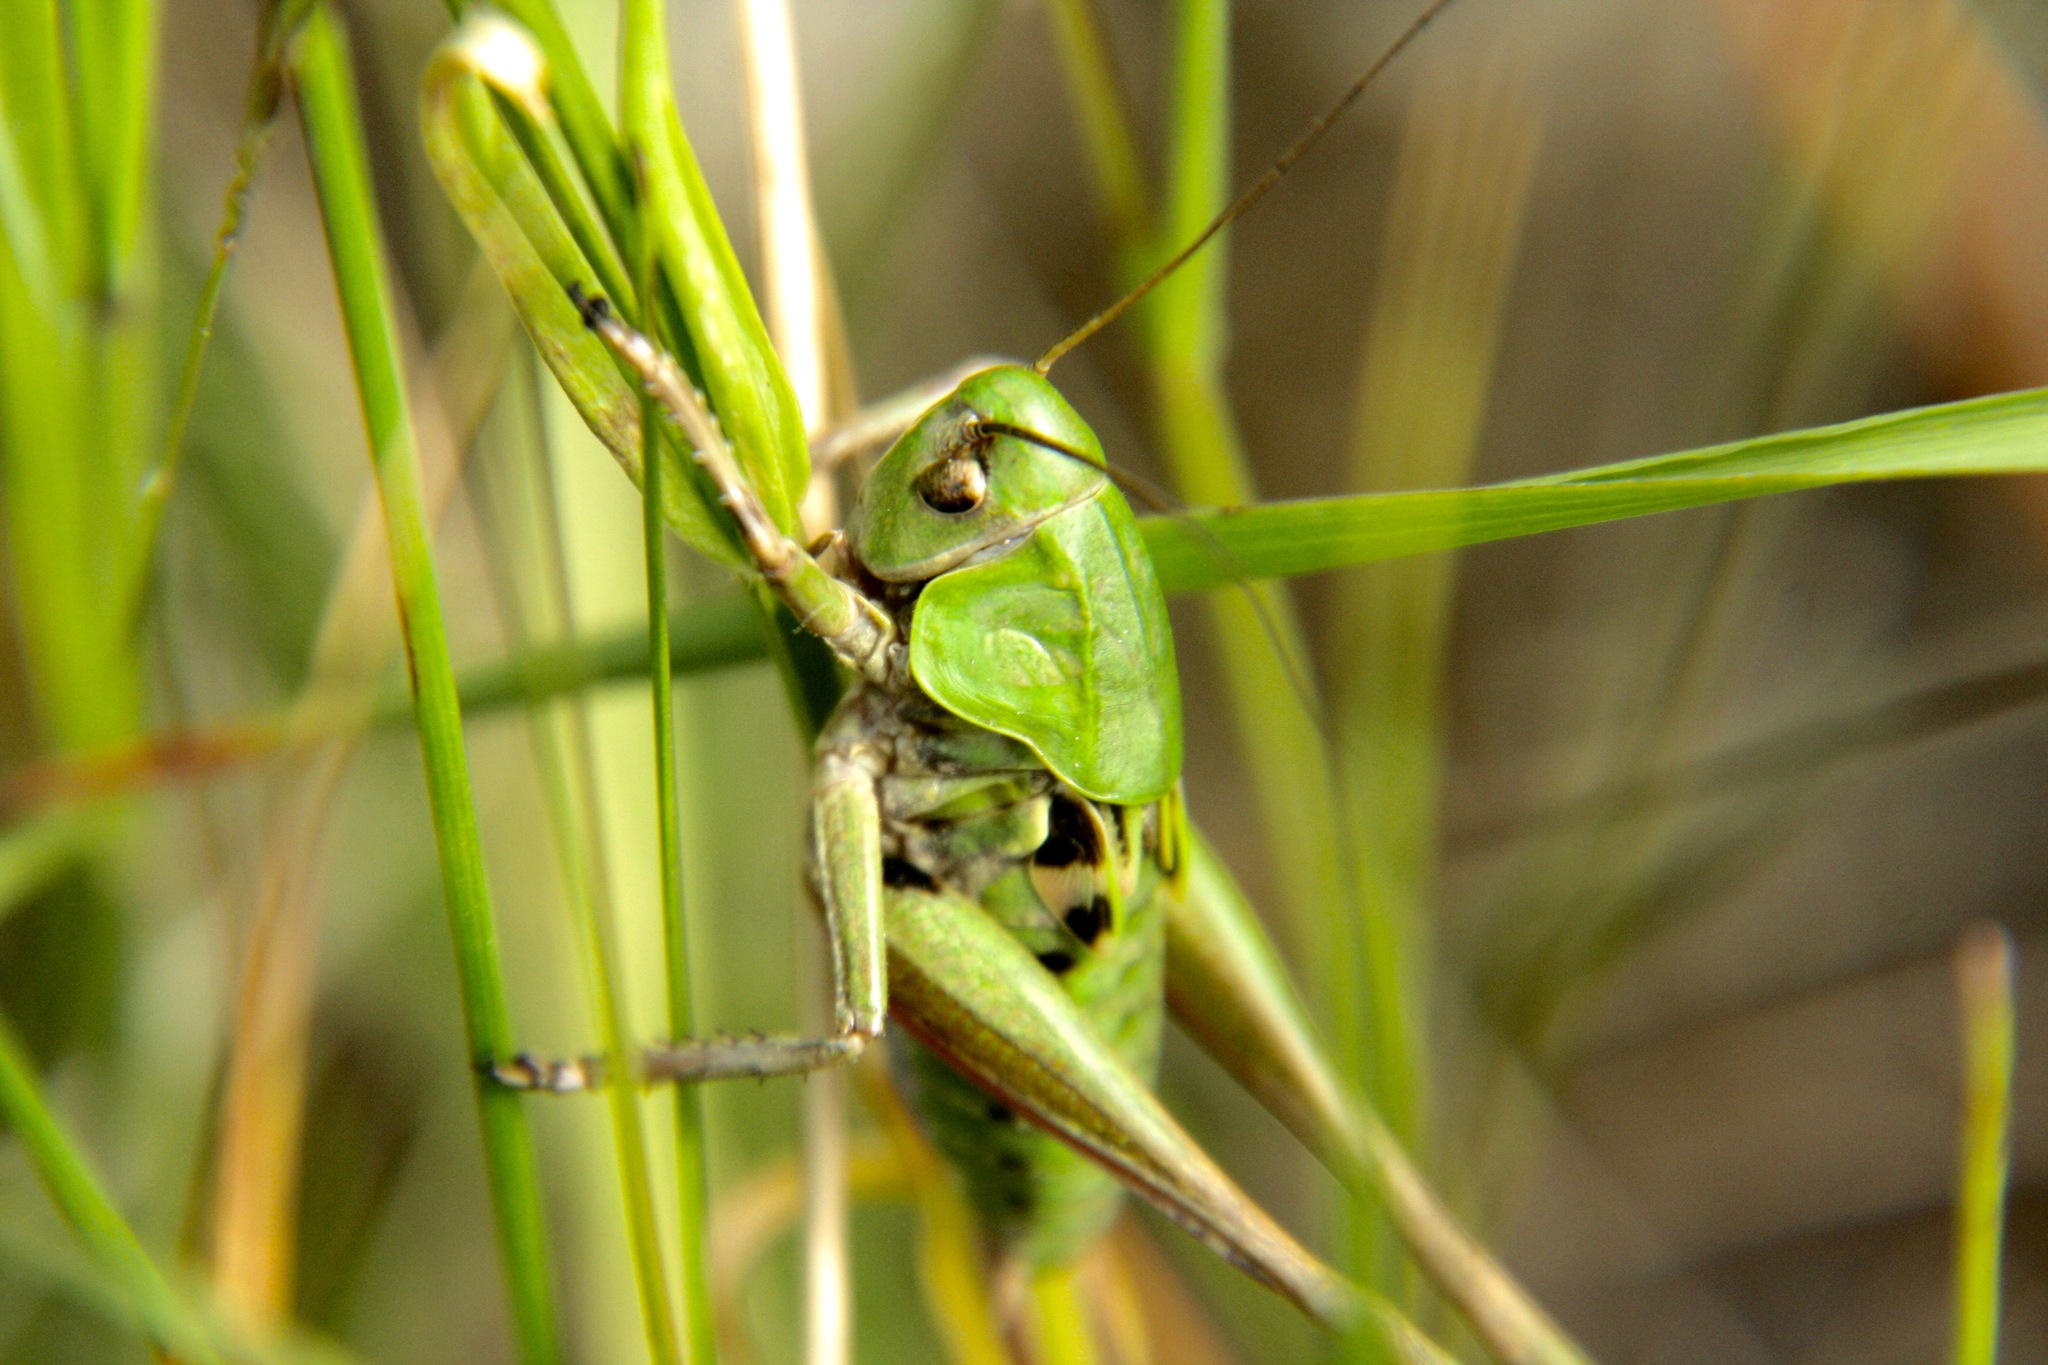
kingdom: Animalia
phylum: Arthropoda
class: Insecta
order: Orthoptera
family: Tettigoniidae
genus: Decticus
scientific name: Decticus verrucivorus
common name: Wart-biter
